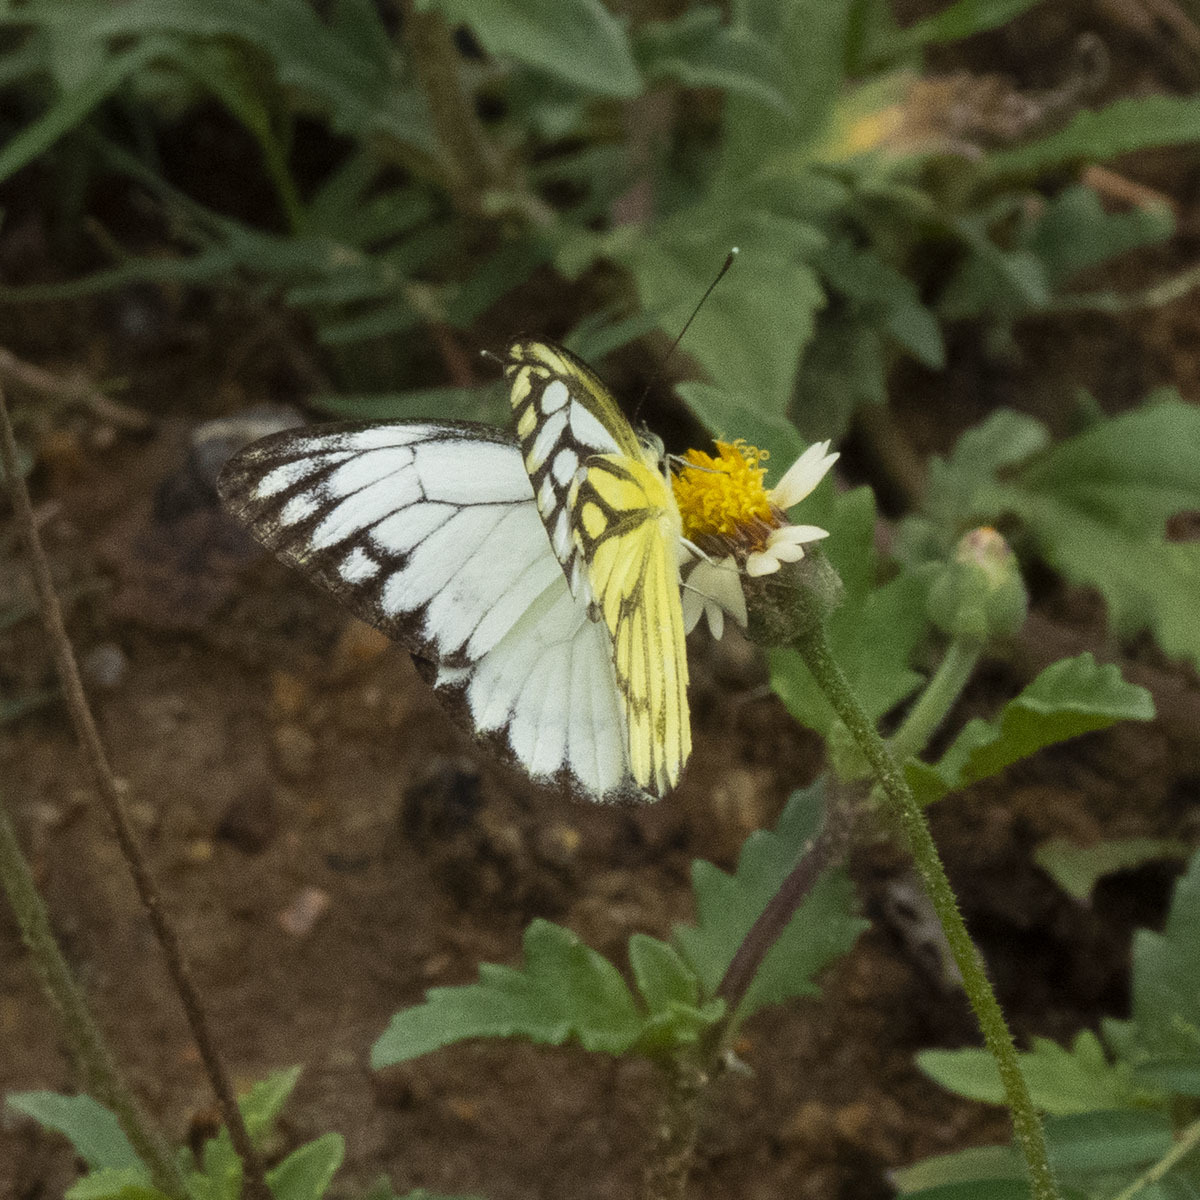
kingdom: Animalia
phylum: Arthropoda
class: Insecta
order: Lepidoptera
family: Pieridae
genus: Cepora
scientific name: Cepora nerissa
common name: Common gull
